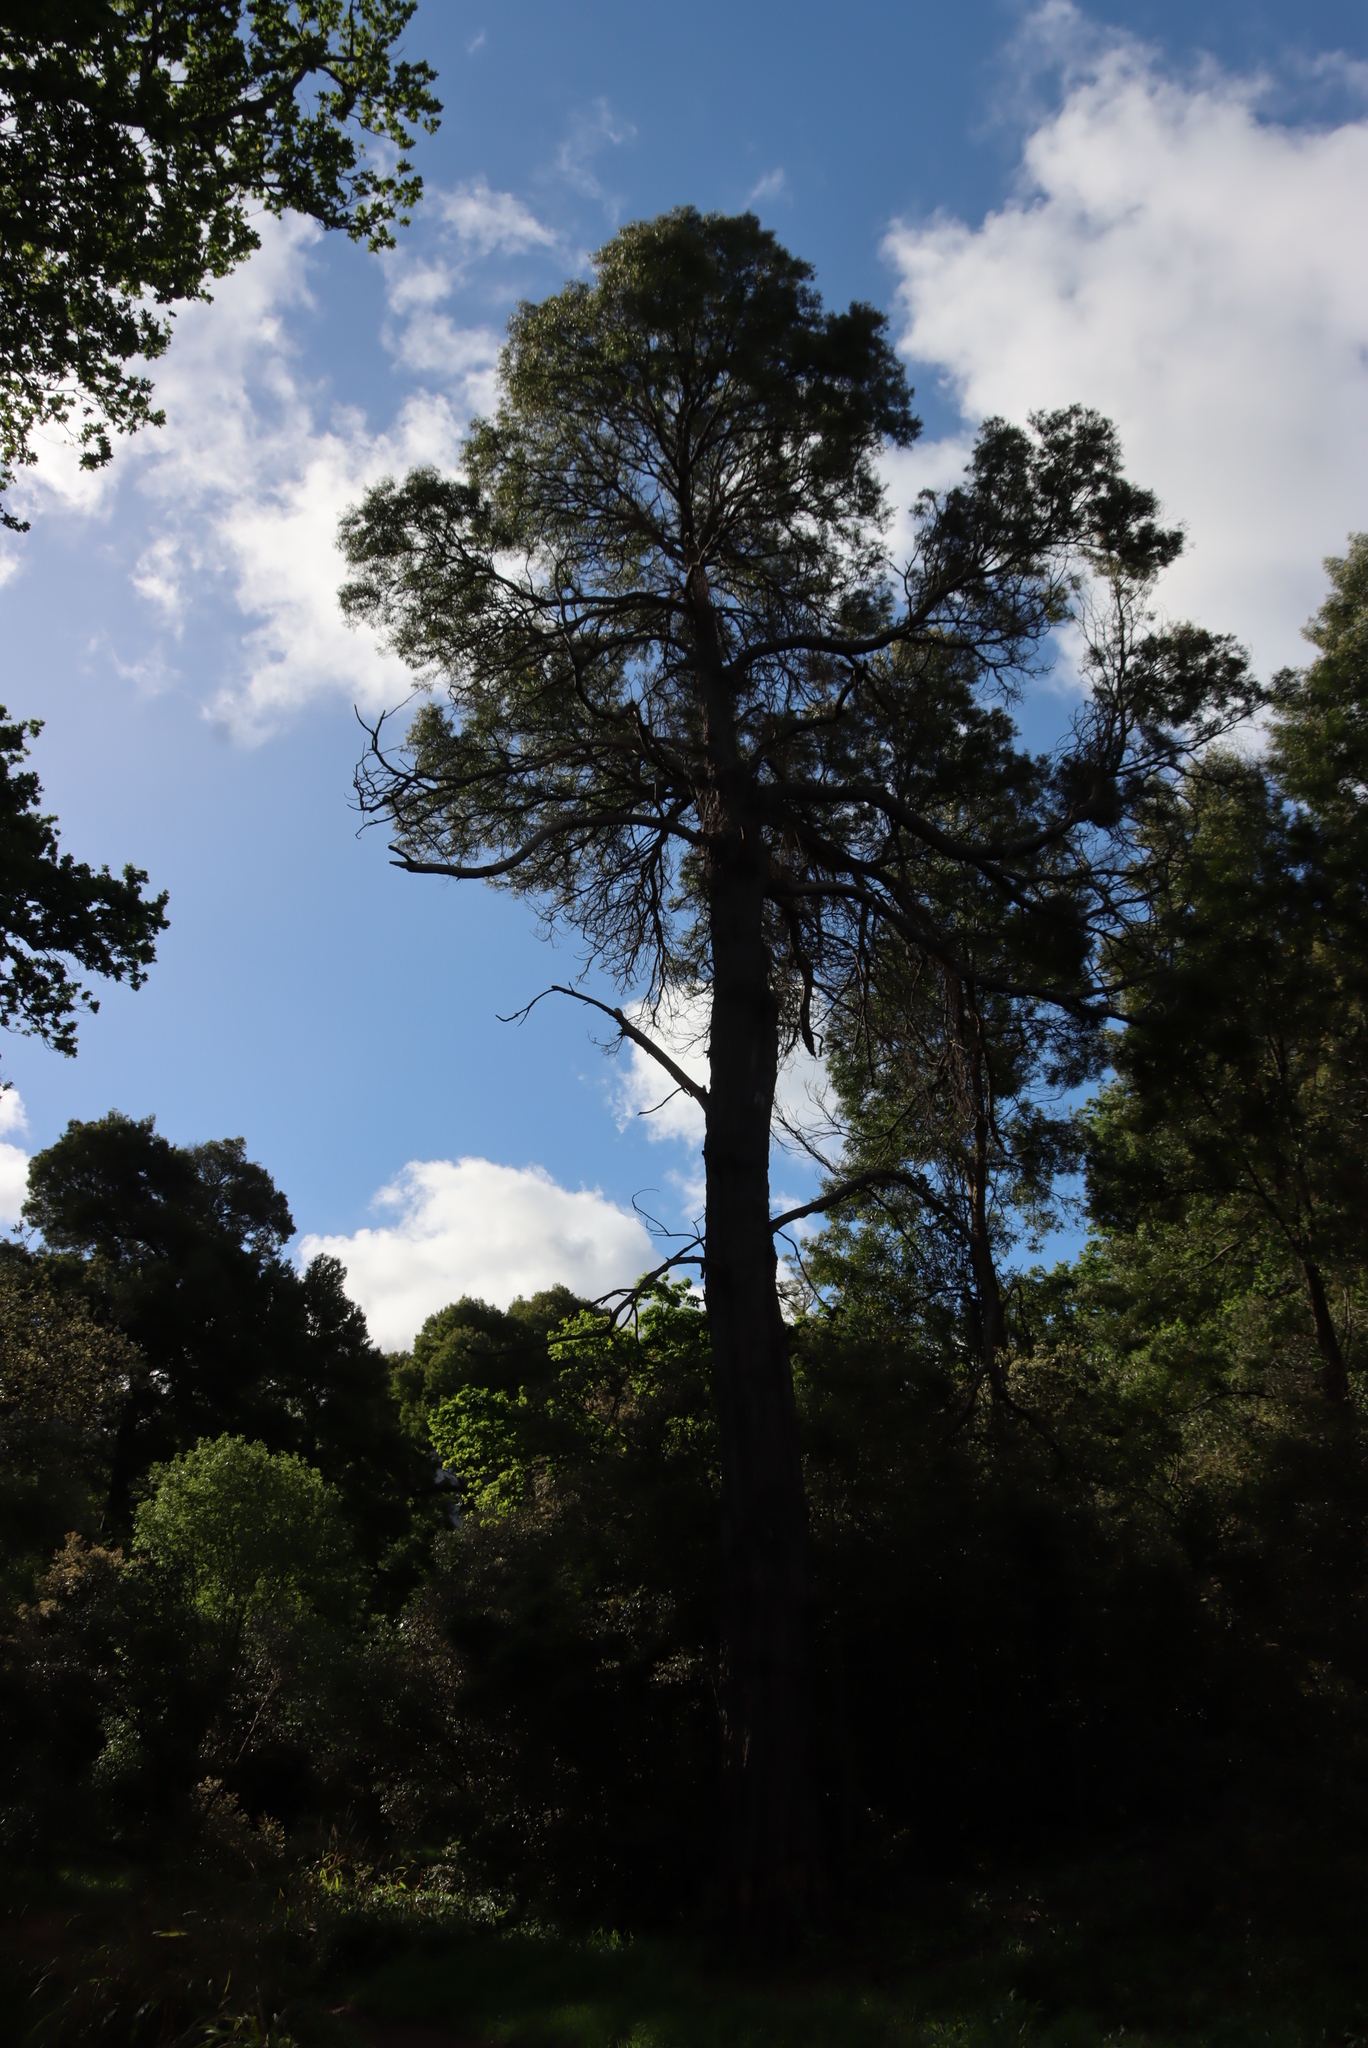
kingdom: Plantae
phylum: Tracheophyta
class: Magnoliopsida
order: Fabales
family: Fabaceae
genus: Acacia
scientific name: Acacia melanoxylon
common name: Blackwood
